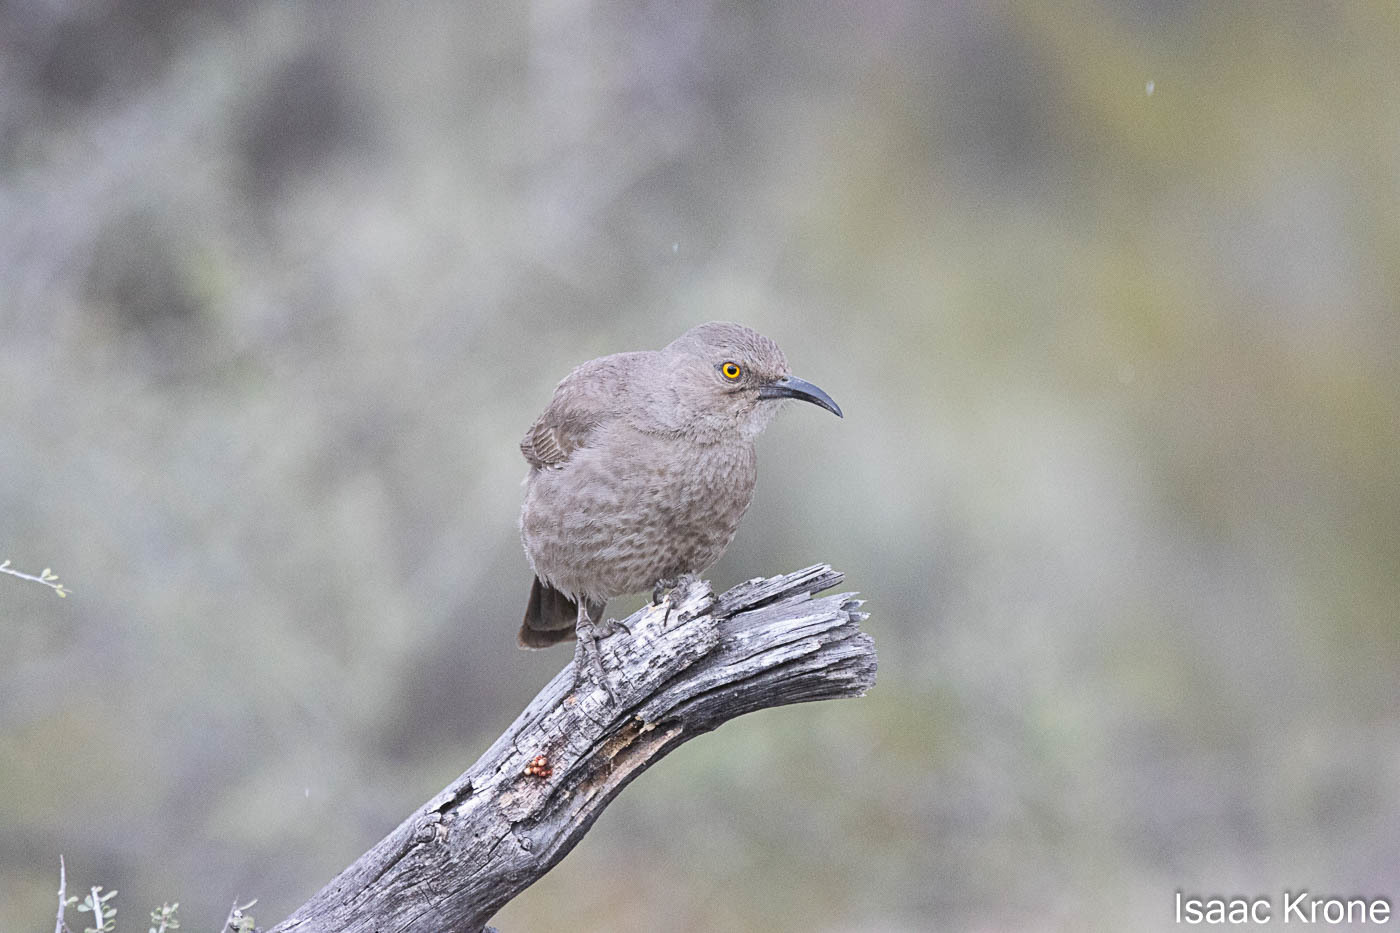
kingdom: Animalia
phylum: Chordata
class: Aves
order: Passeriformes
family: Mimidae
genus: Toxostoma
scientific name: Toxostoma curvirostre
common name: Curve-billed thrasher
